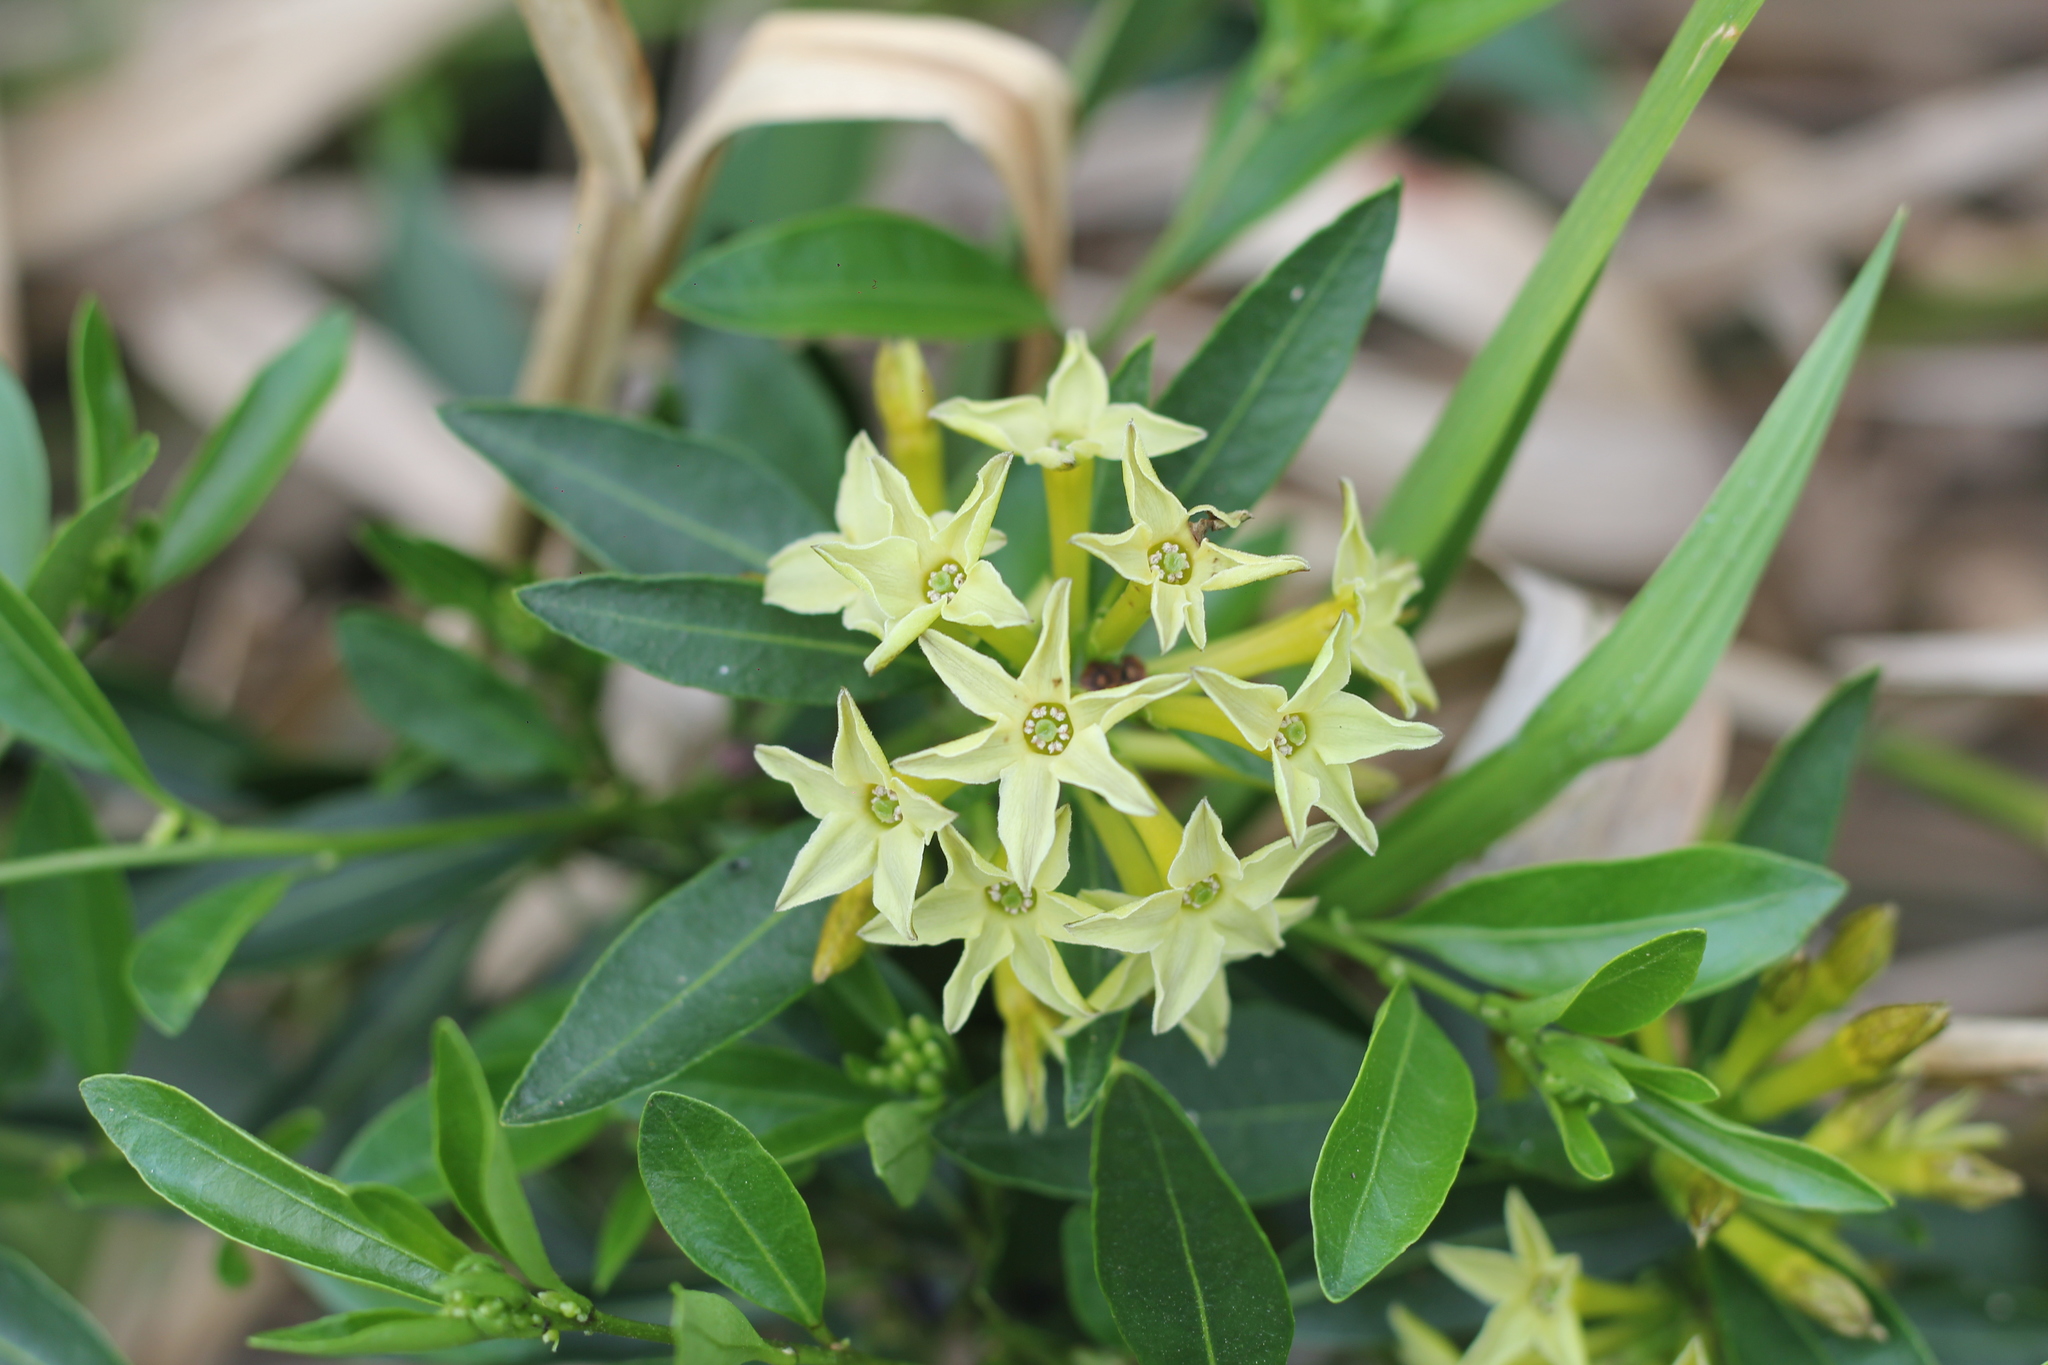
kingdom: Plantae
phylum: Tracheophyta
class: Magnoliopsida
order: Solanales
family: Solanaceae
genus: Cestrum
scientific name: Cestrum parqui
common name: Chilean cestrum
